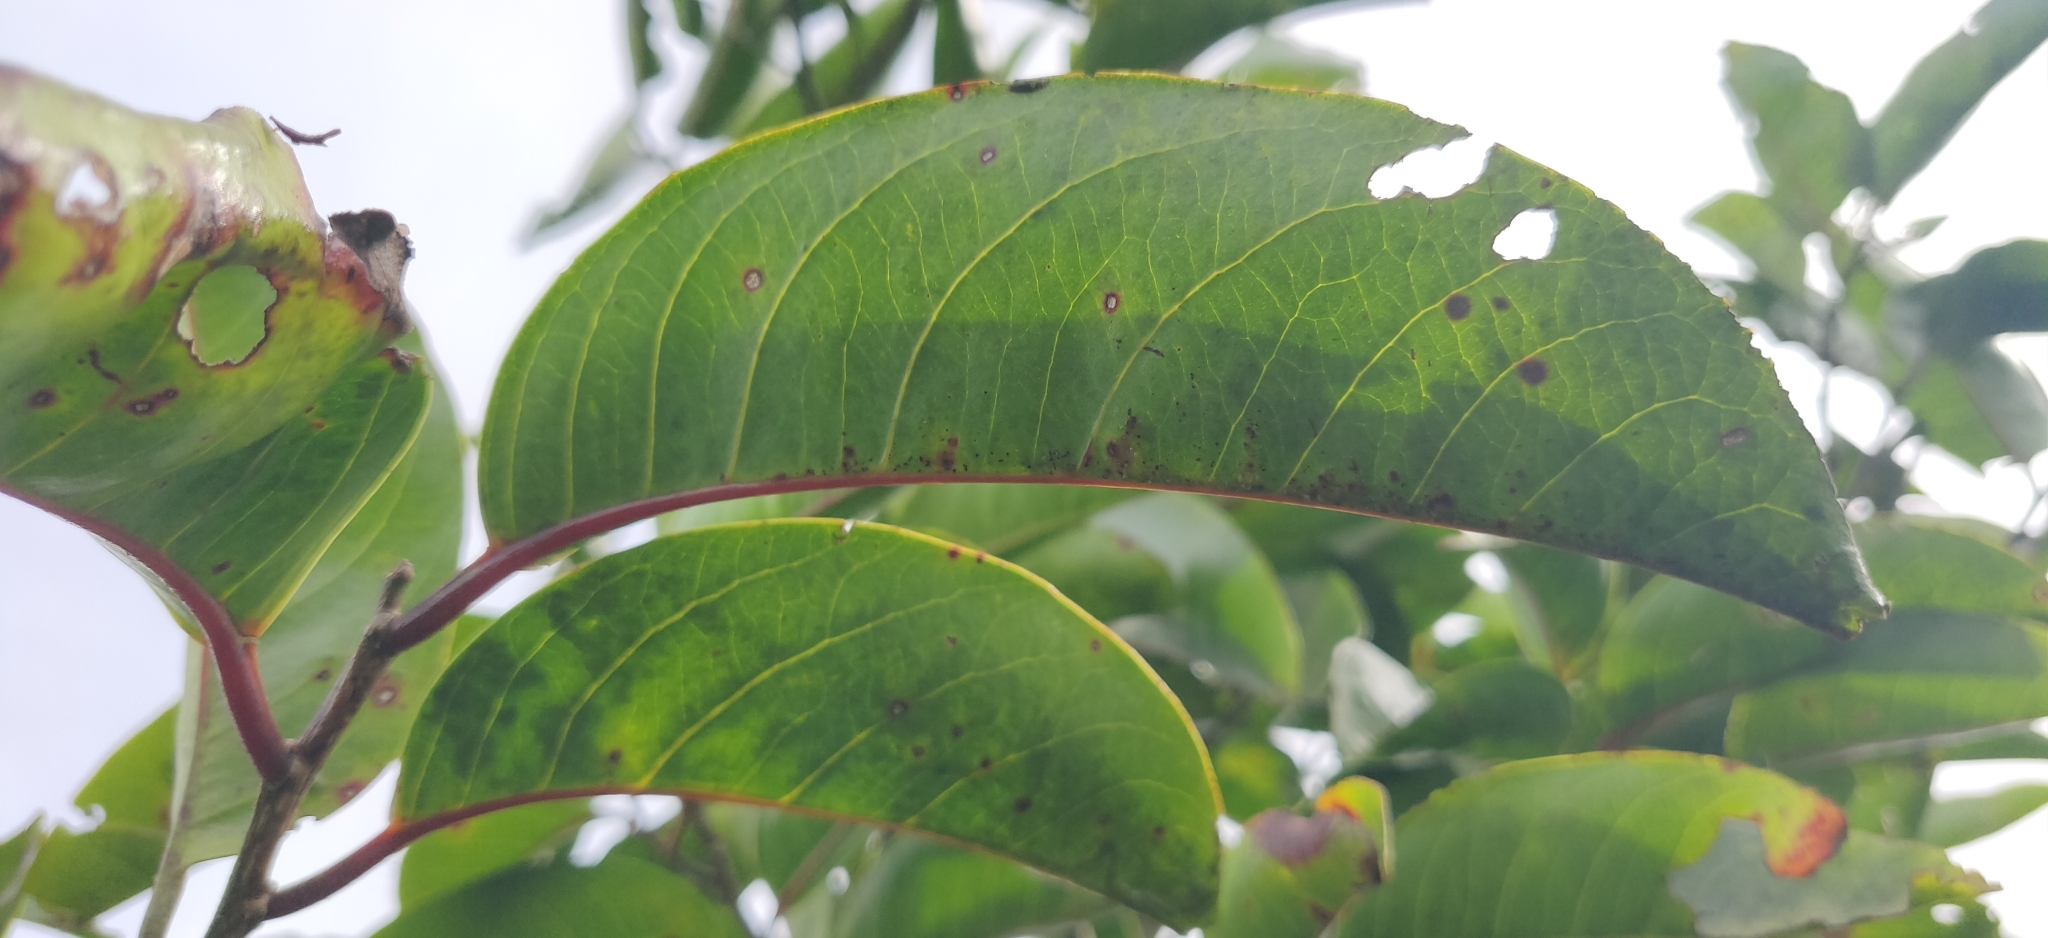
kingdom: Plantae
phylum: Tracheophyta
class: Magnoliopsida
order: Malpighiales
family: Salicaceae
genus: Casearia
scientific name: Casearia rubescens
